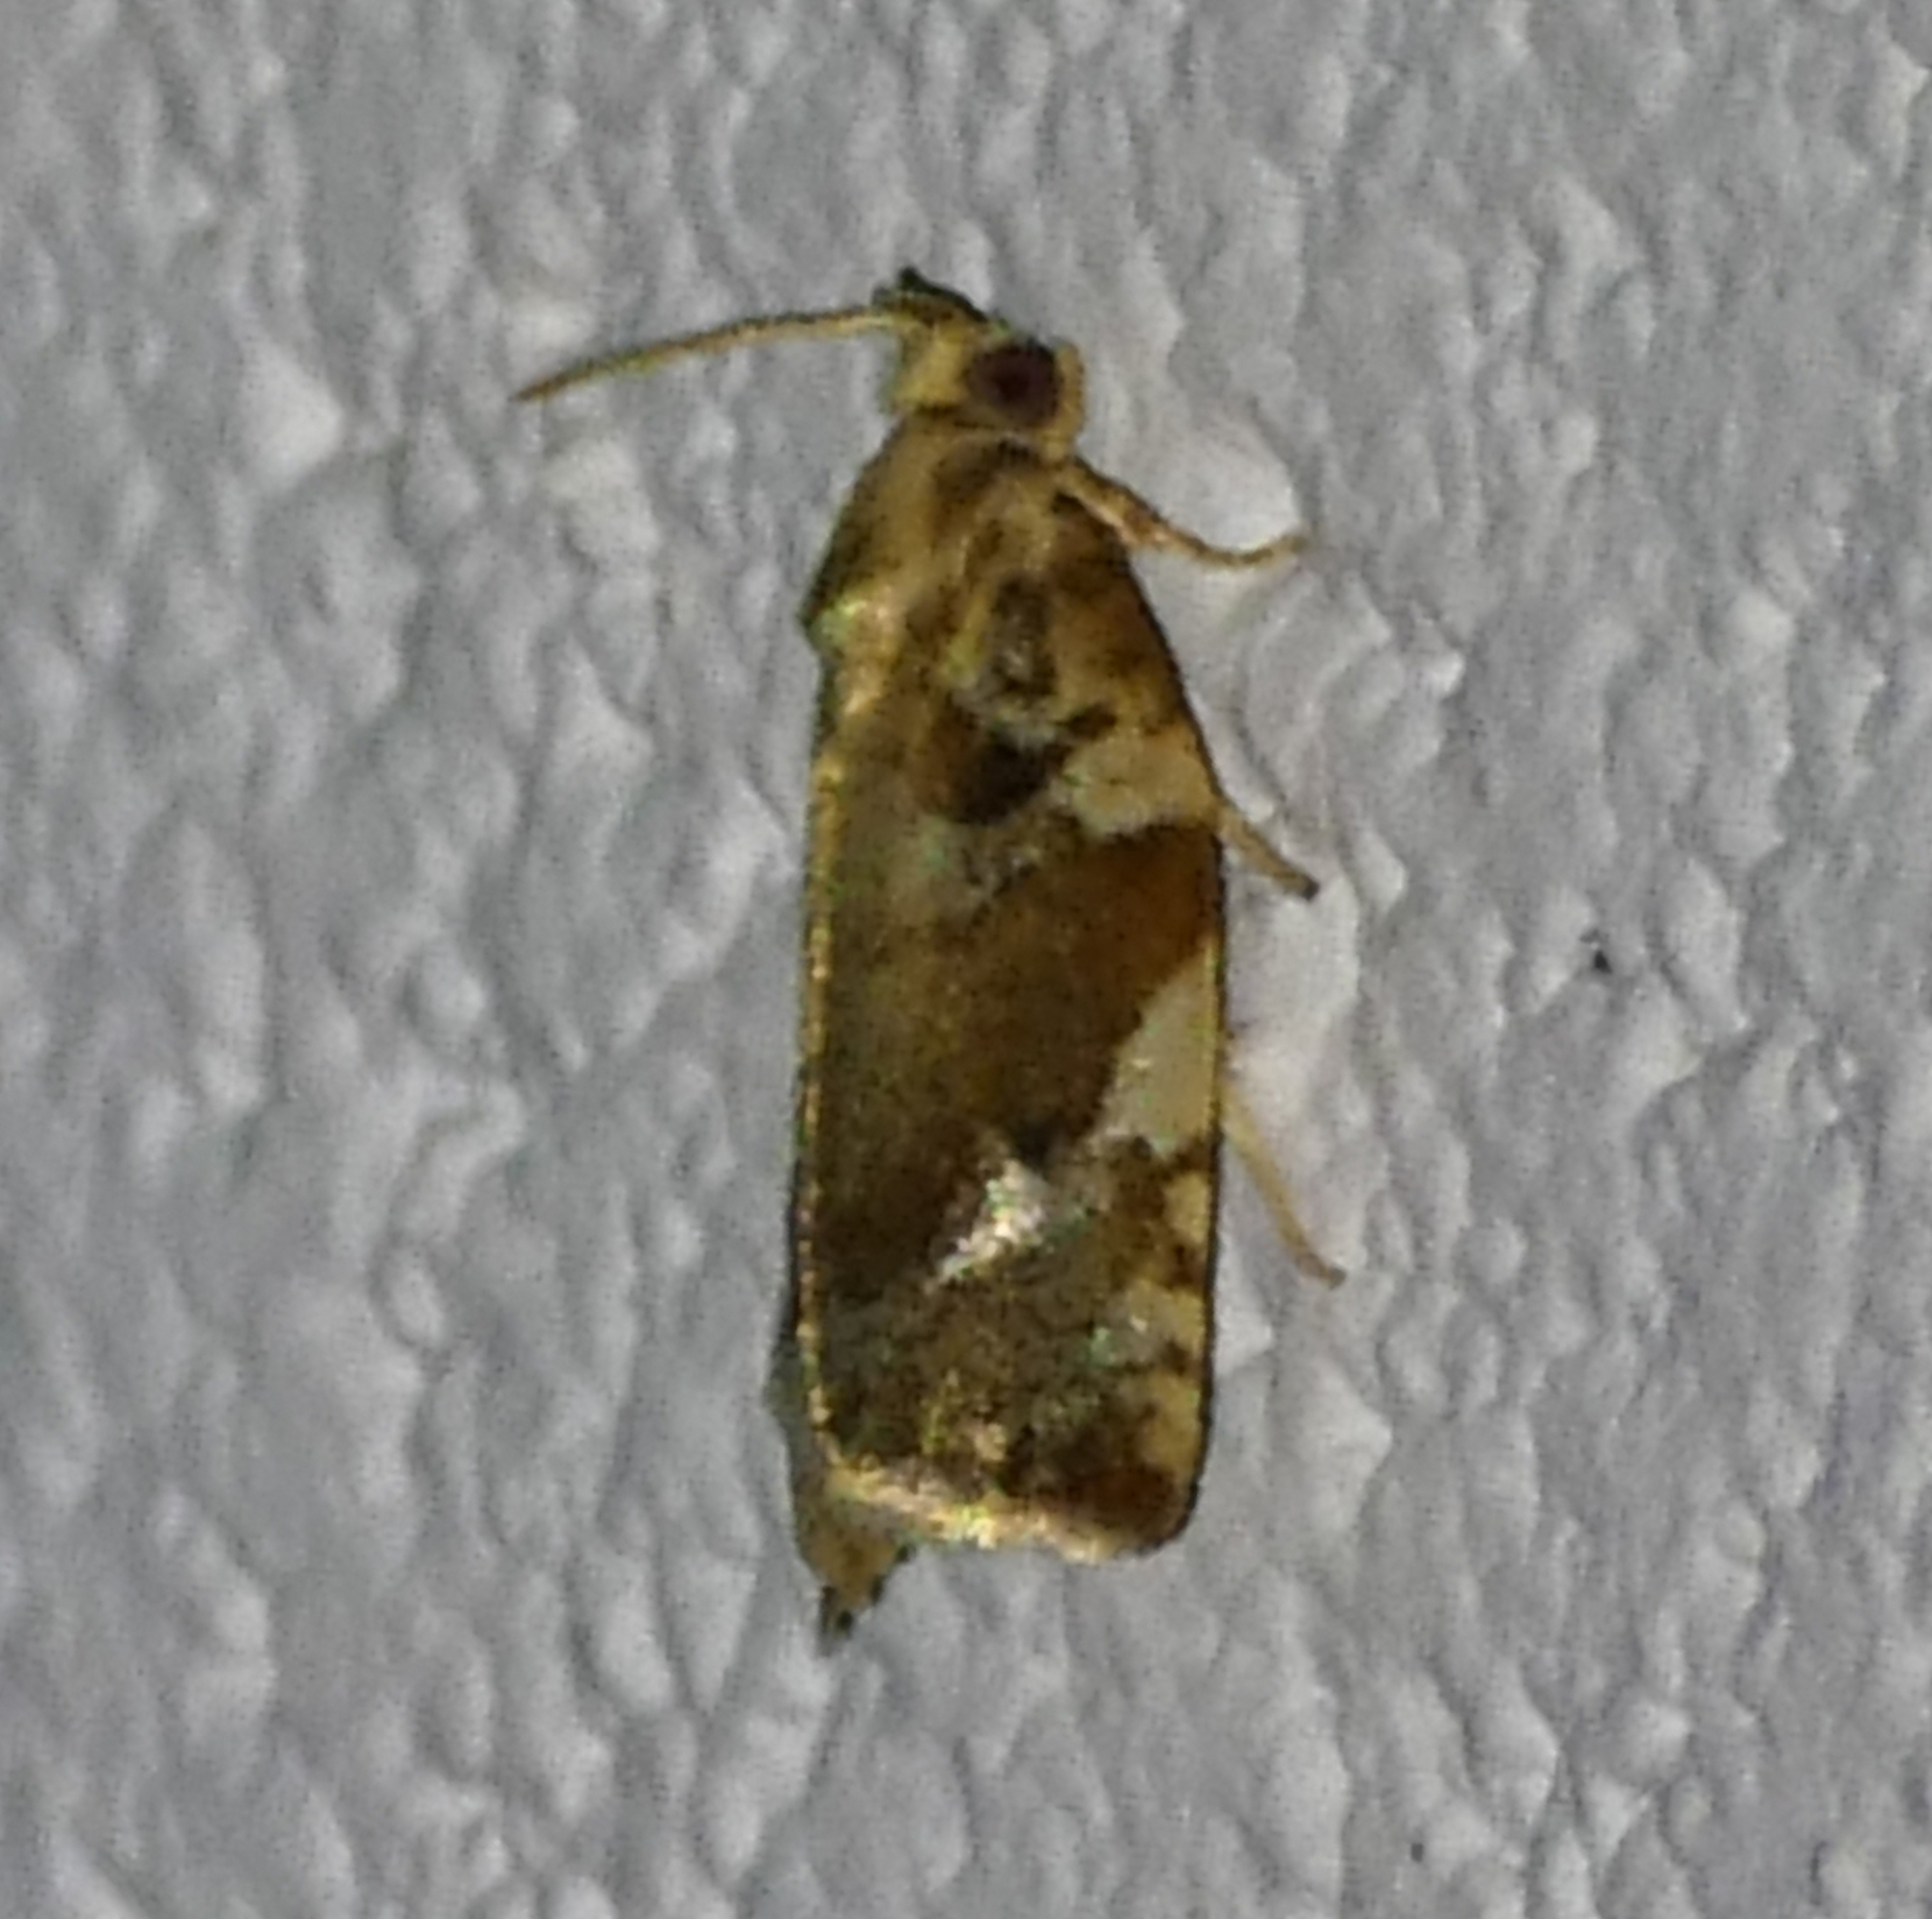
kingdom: Animalia
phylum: Arthropoda
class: Insecta
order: Lepidoptera
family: Tortricidae
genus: Archips
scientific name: Archips semiferanus
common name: Oak leafroller
